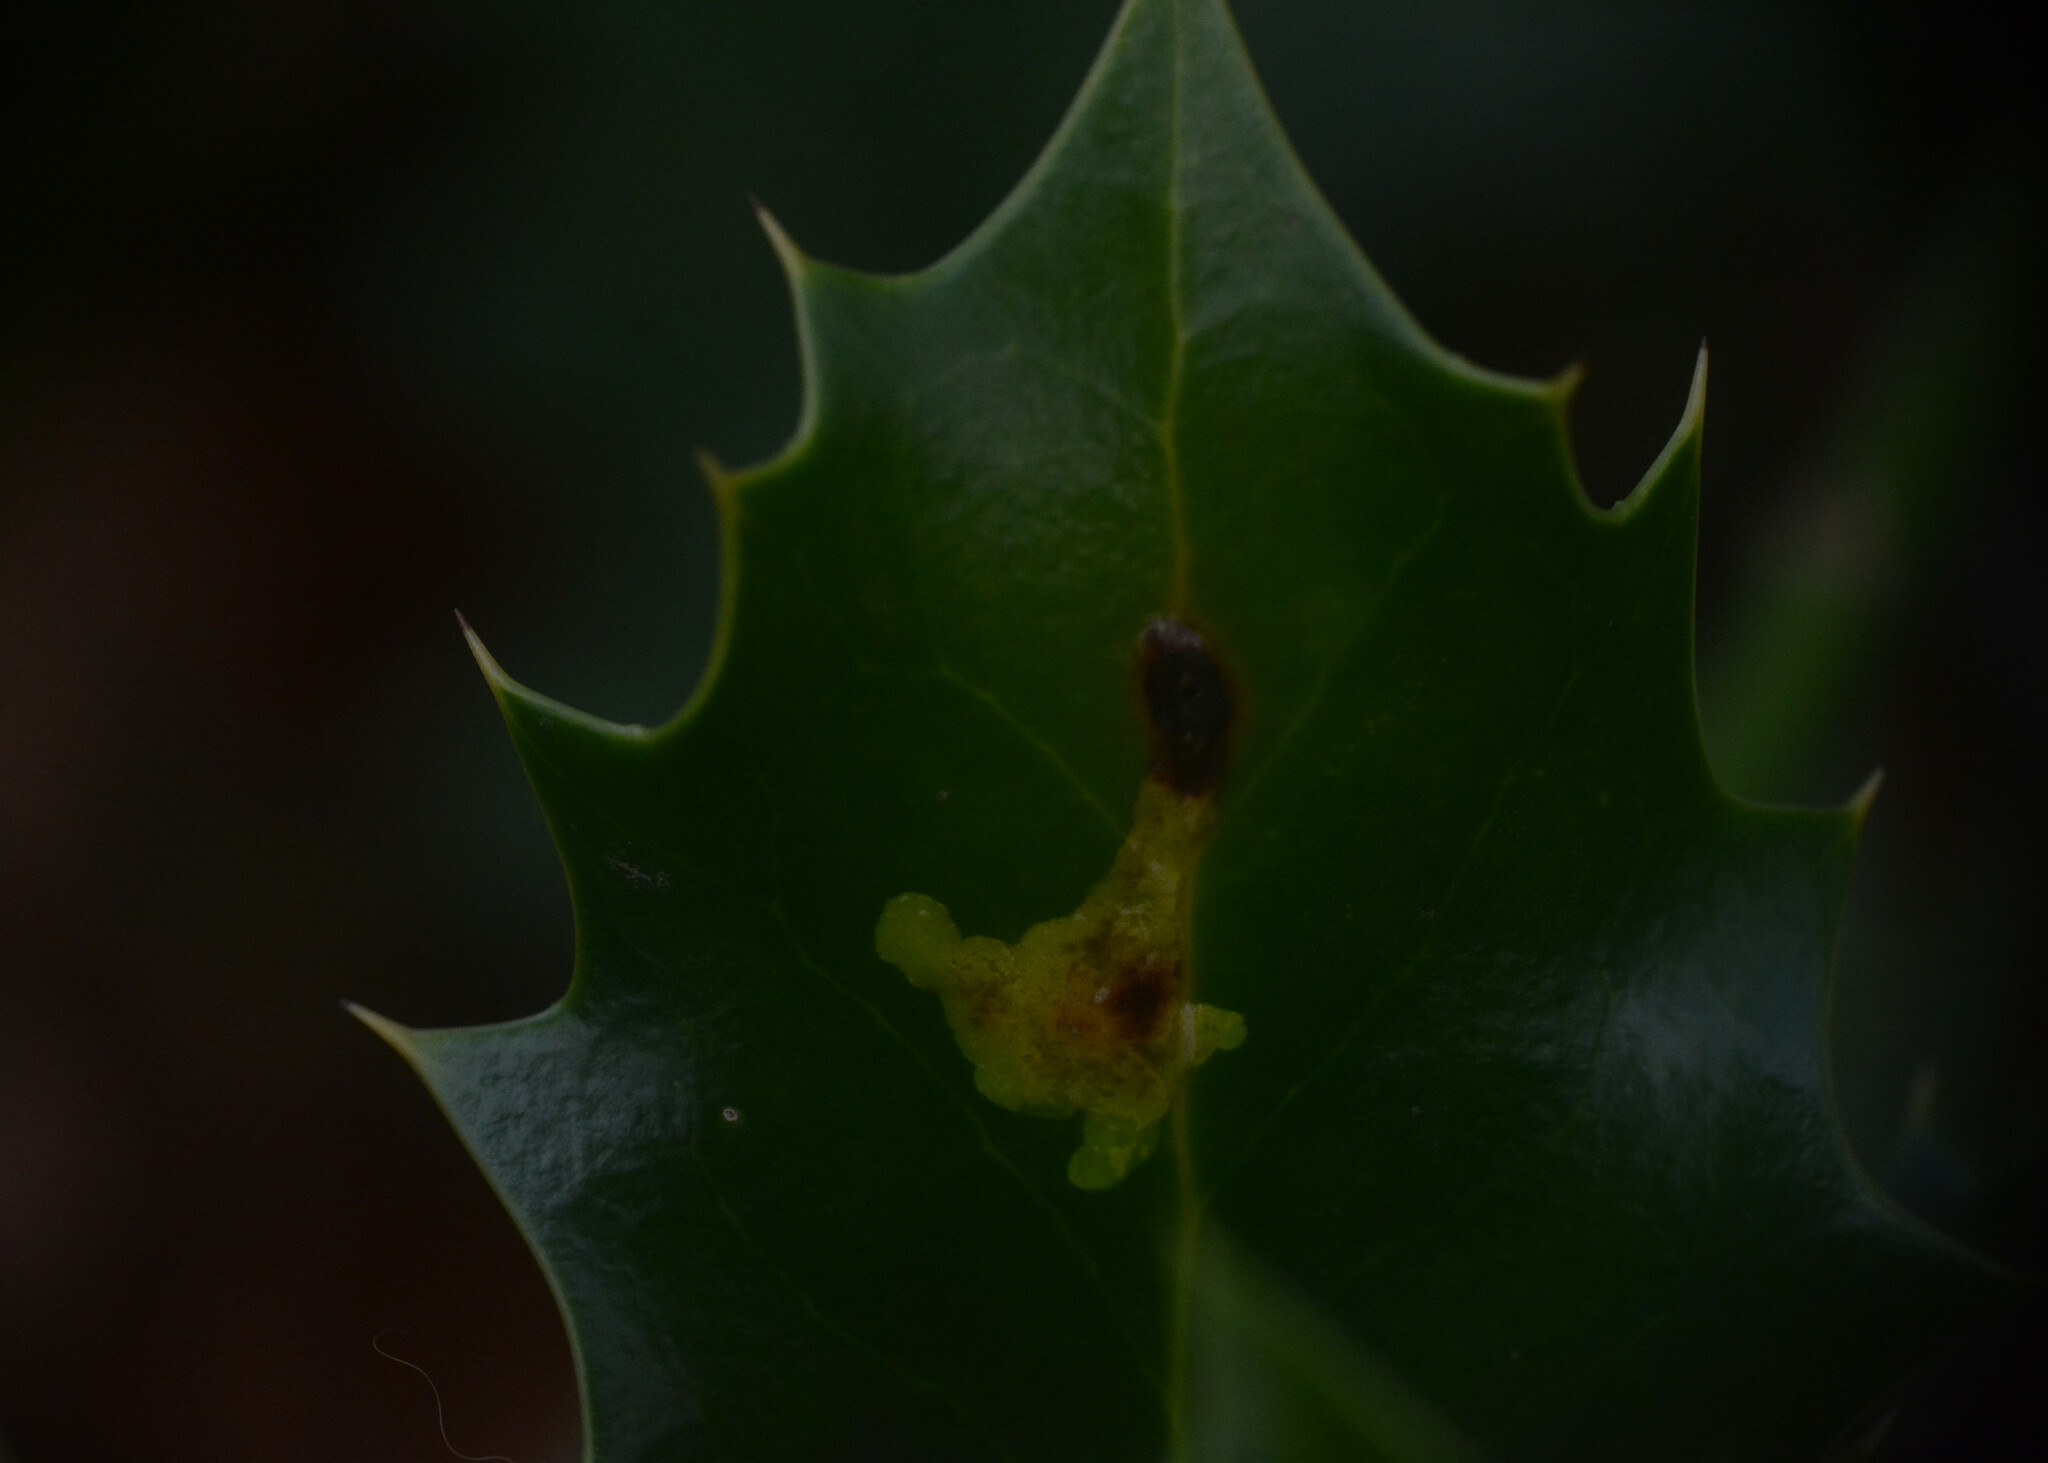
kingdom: Animalia
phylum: Arthropoda
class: Insecta
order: Diptera
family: Agromyzidae
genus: Phytomyza
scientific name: Phytomyza ilicis
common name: Holly leafminer
